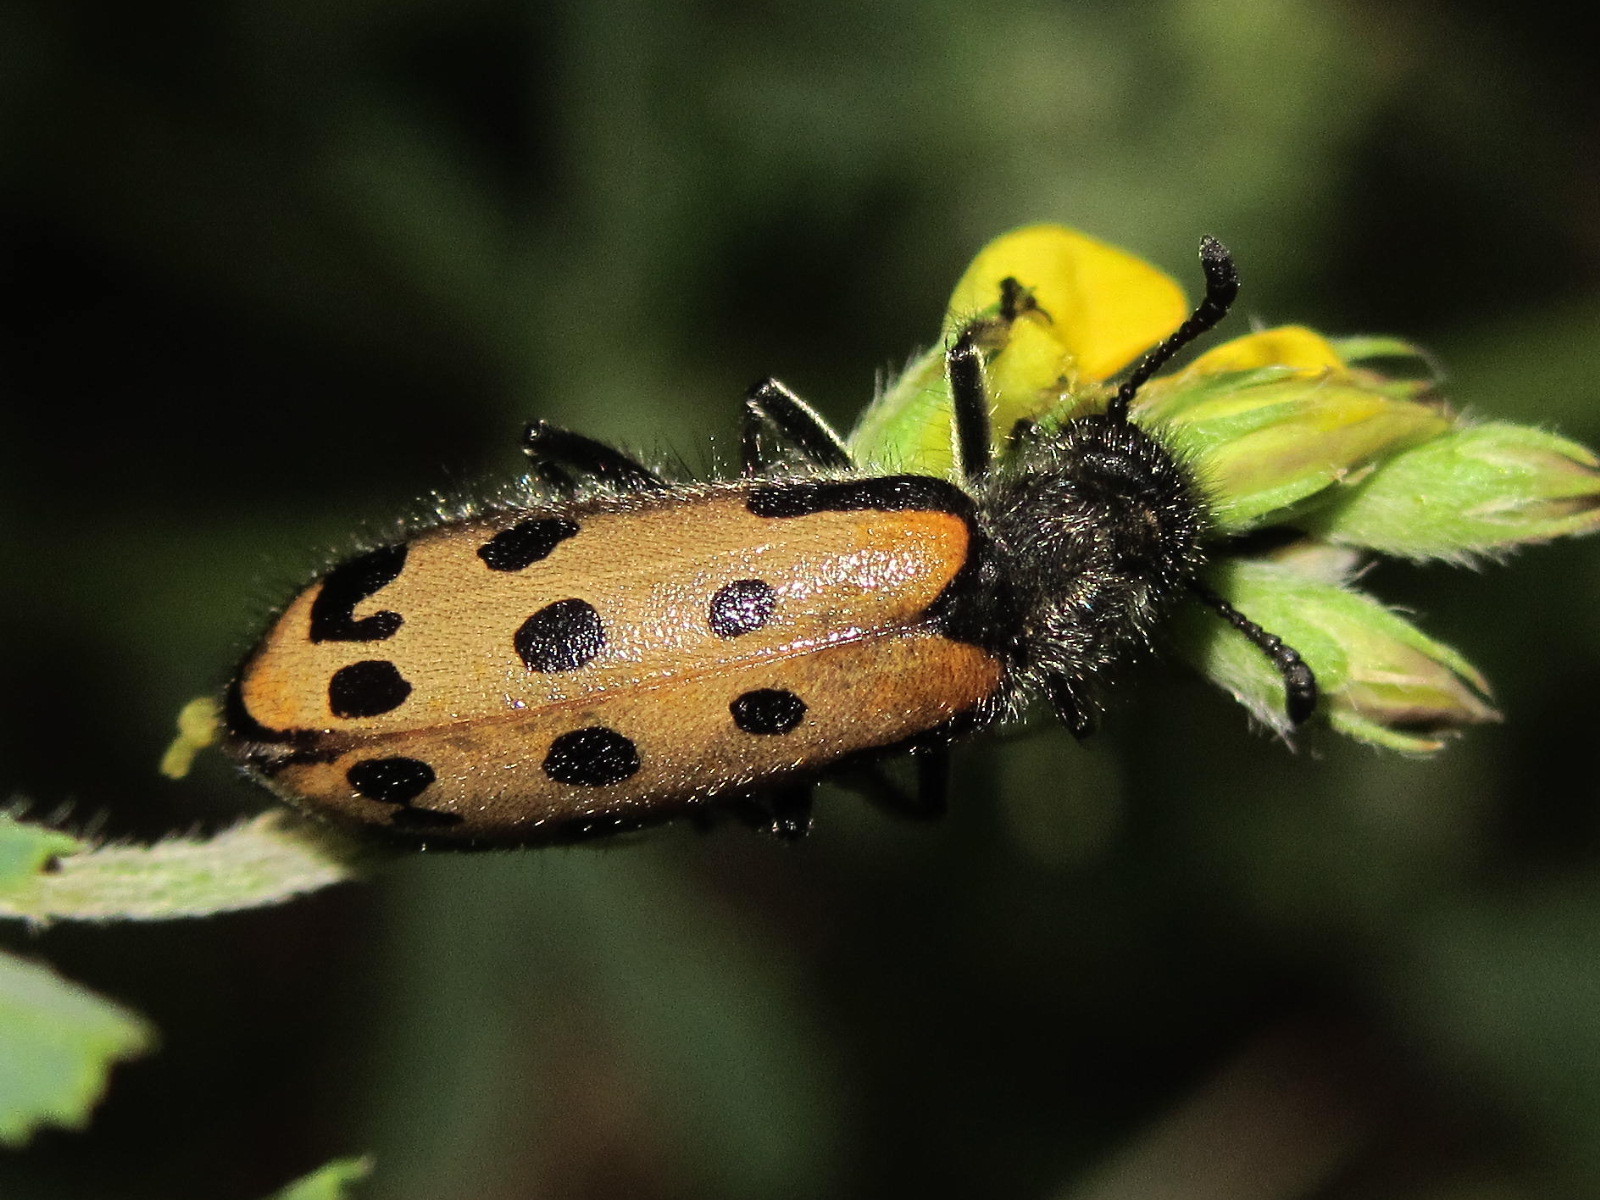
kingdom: Animalia
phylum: Arthropoda
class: Insecta
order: Coleoptera
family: Meloidae
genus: Hycleus
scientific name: Hycleus quatuordecimpunctatus
